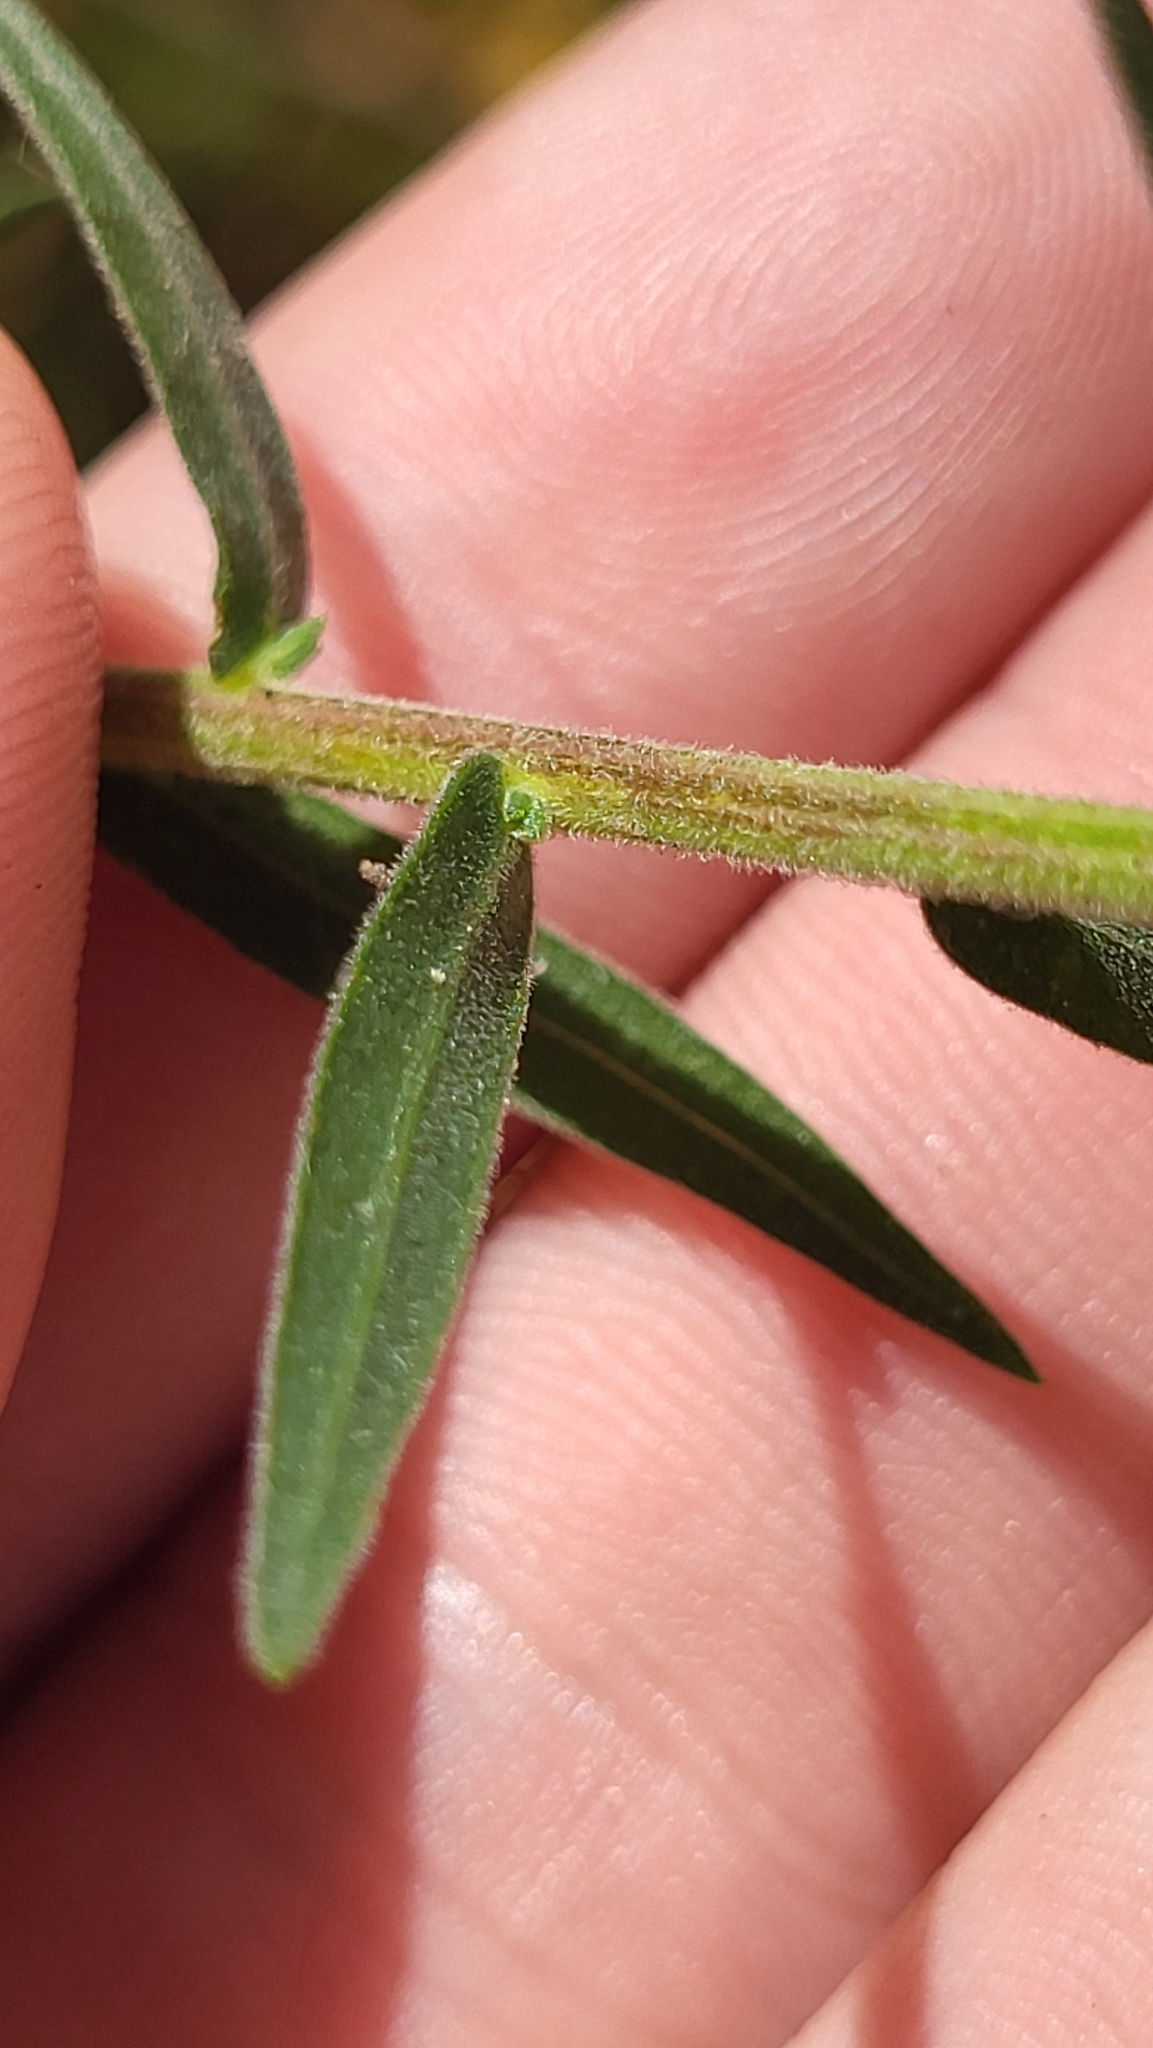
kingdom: Plantae
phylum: Tracheophyta
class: Magnoliopsida
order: Asterales
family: Asteraceae
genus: Liatris
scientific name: Liatris squarrulosa
